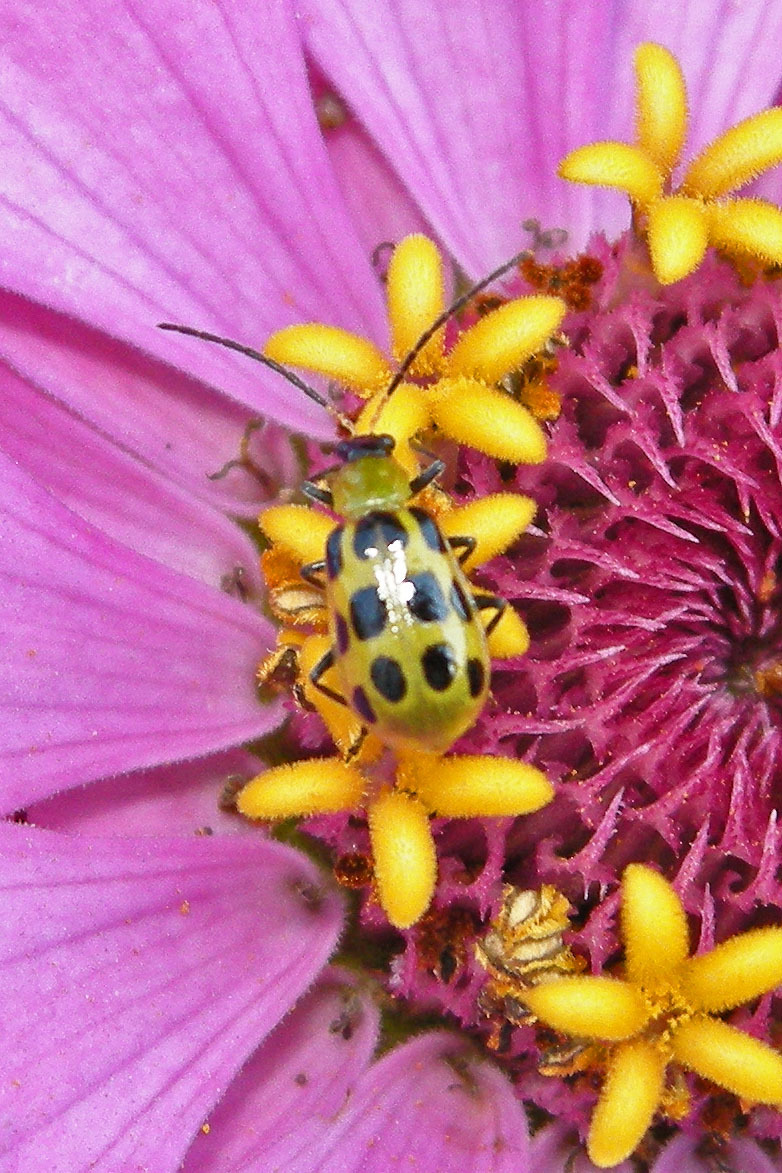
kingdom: Animalia
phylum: Arthropoda
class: Insecta
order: Coleoptera
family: Chrysomelidae
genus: Diabrotica
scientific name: Diabrotica undecimpunctata
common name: Spotted cucumber beetle
